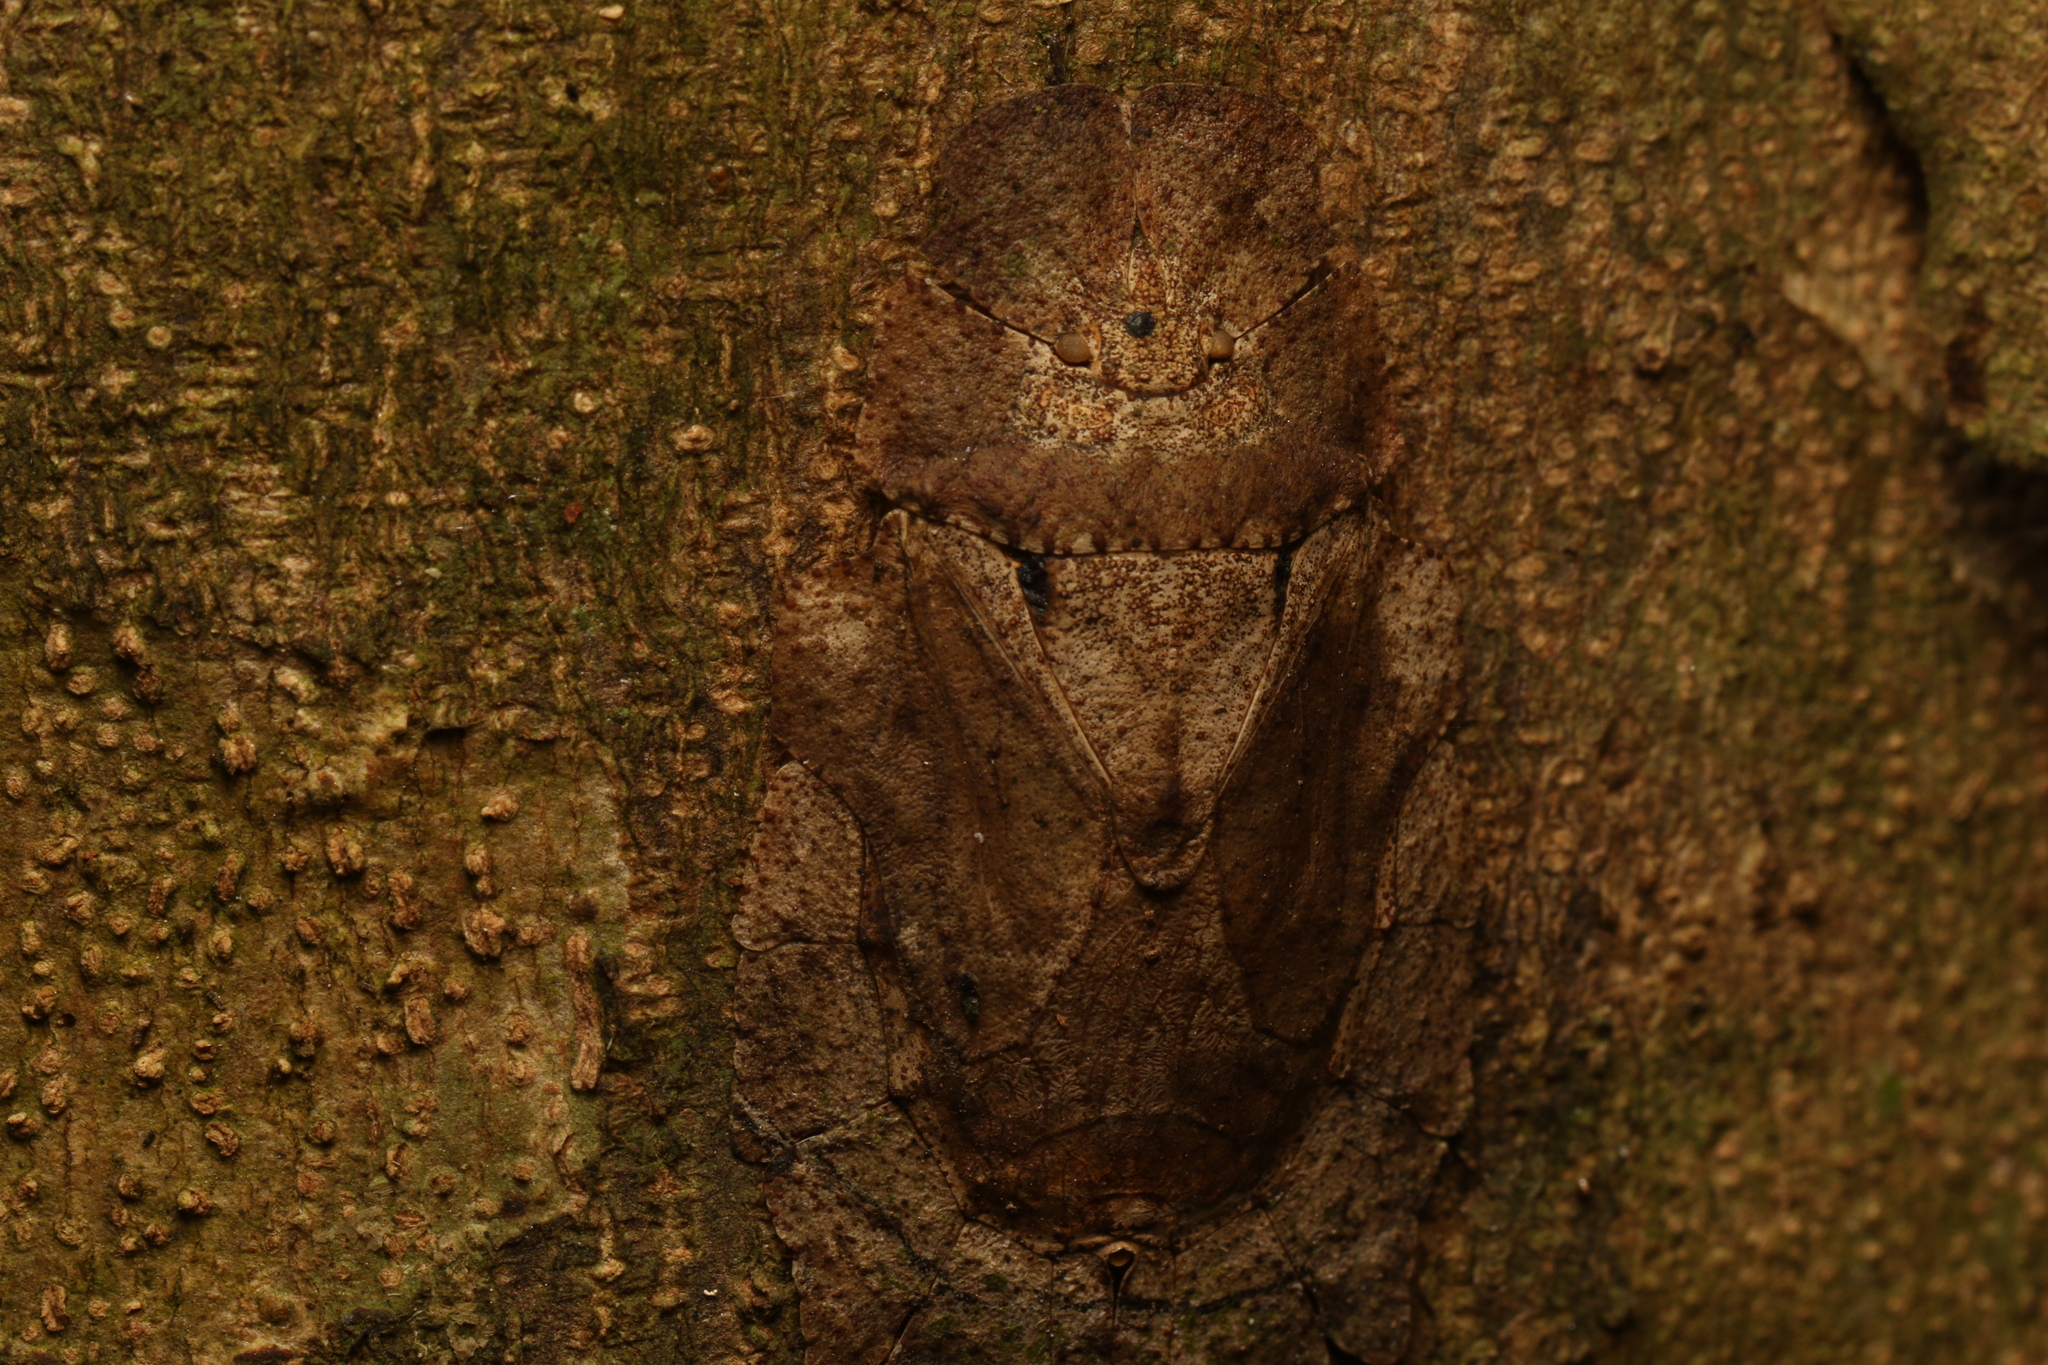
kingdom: Animalia
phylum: Arthropoda
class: Insecta
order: Hemiptera
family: Phleides
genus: Phloea
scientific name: Phloea
